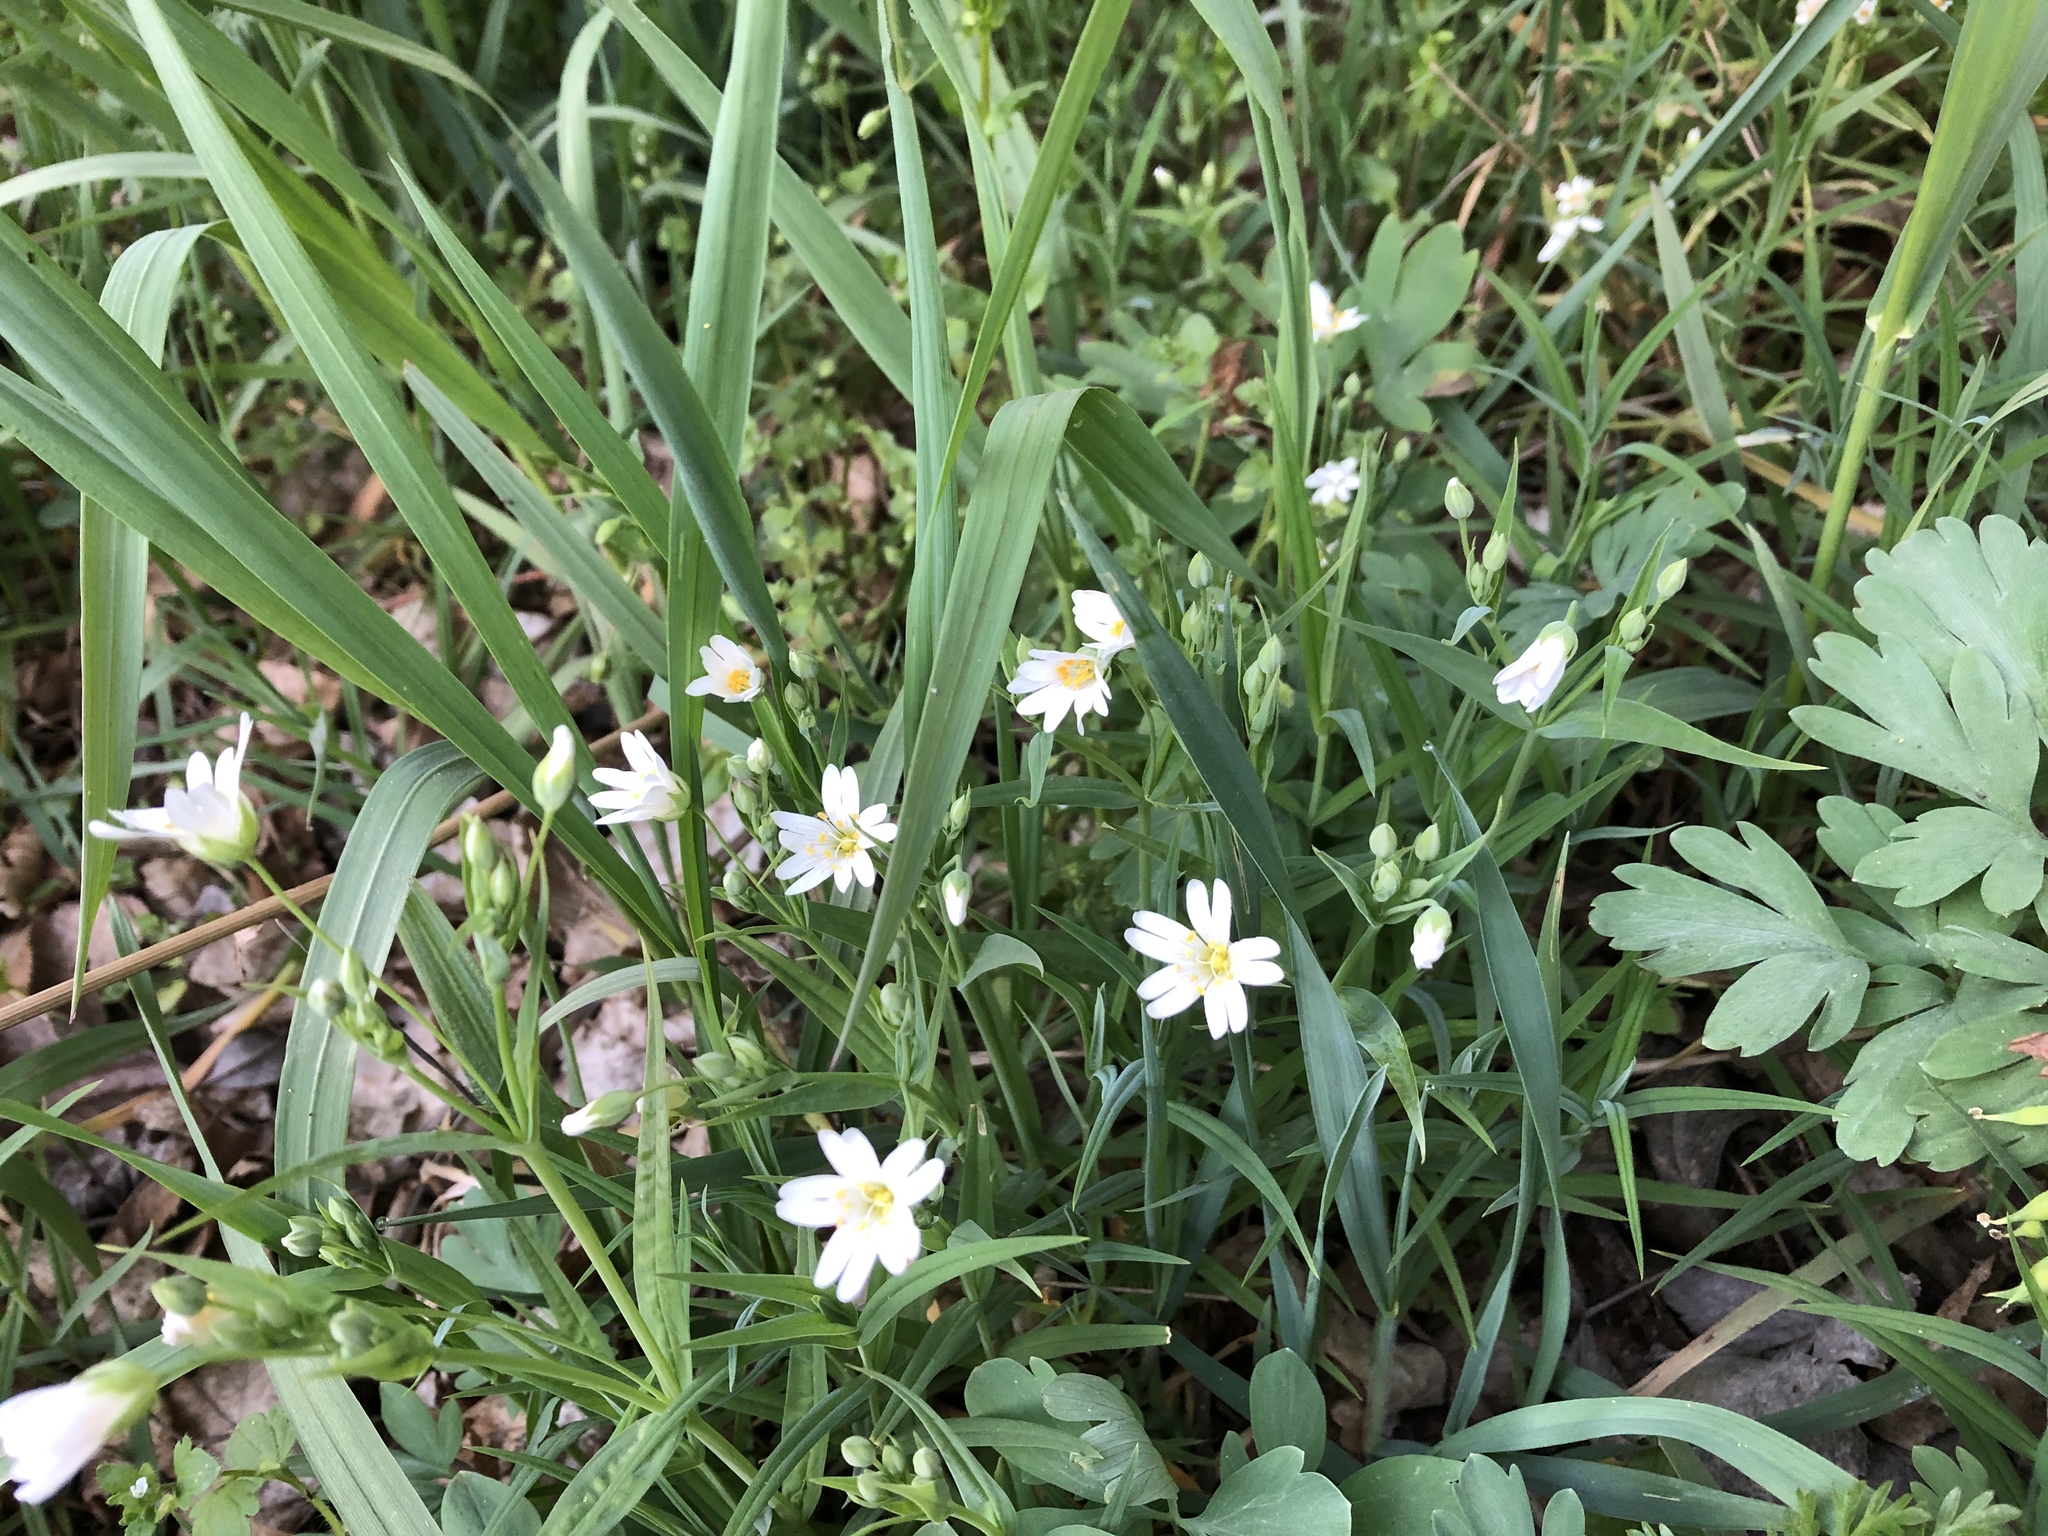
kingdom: Plantae
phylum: Tracheophyta
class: Magnoliopsida
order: Caryophyllales
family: Caryophyllaceae
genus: Rabelera
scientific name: Rabelera holostea
